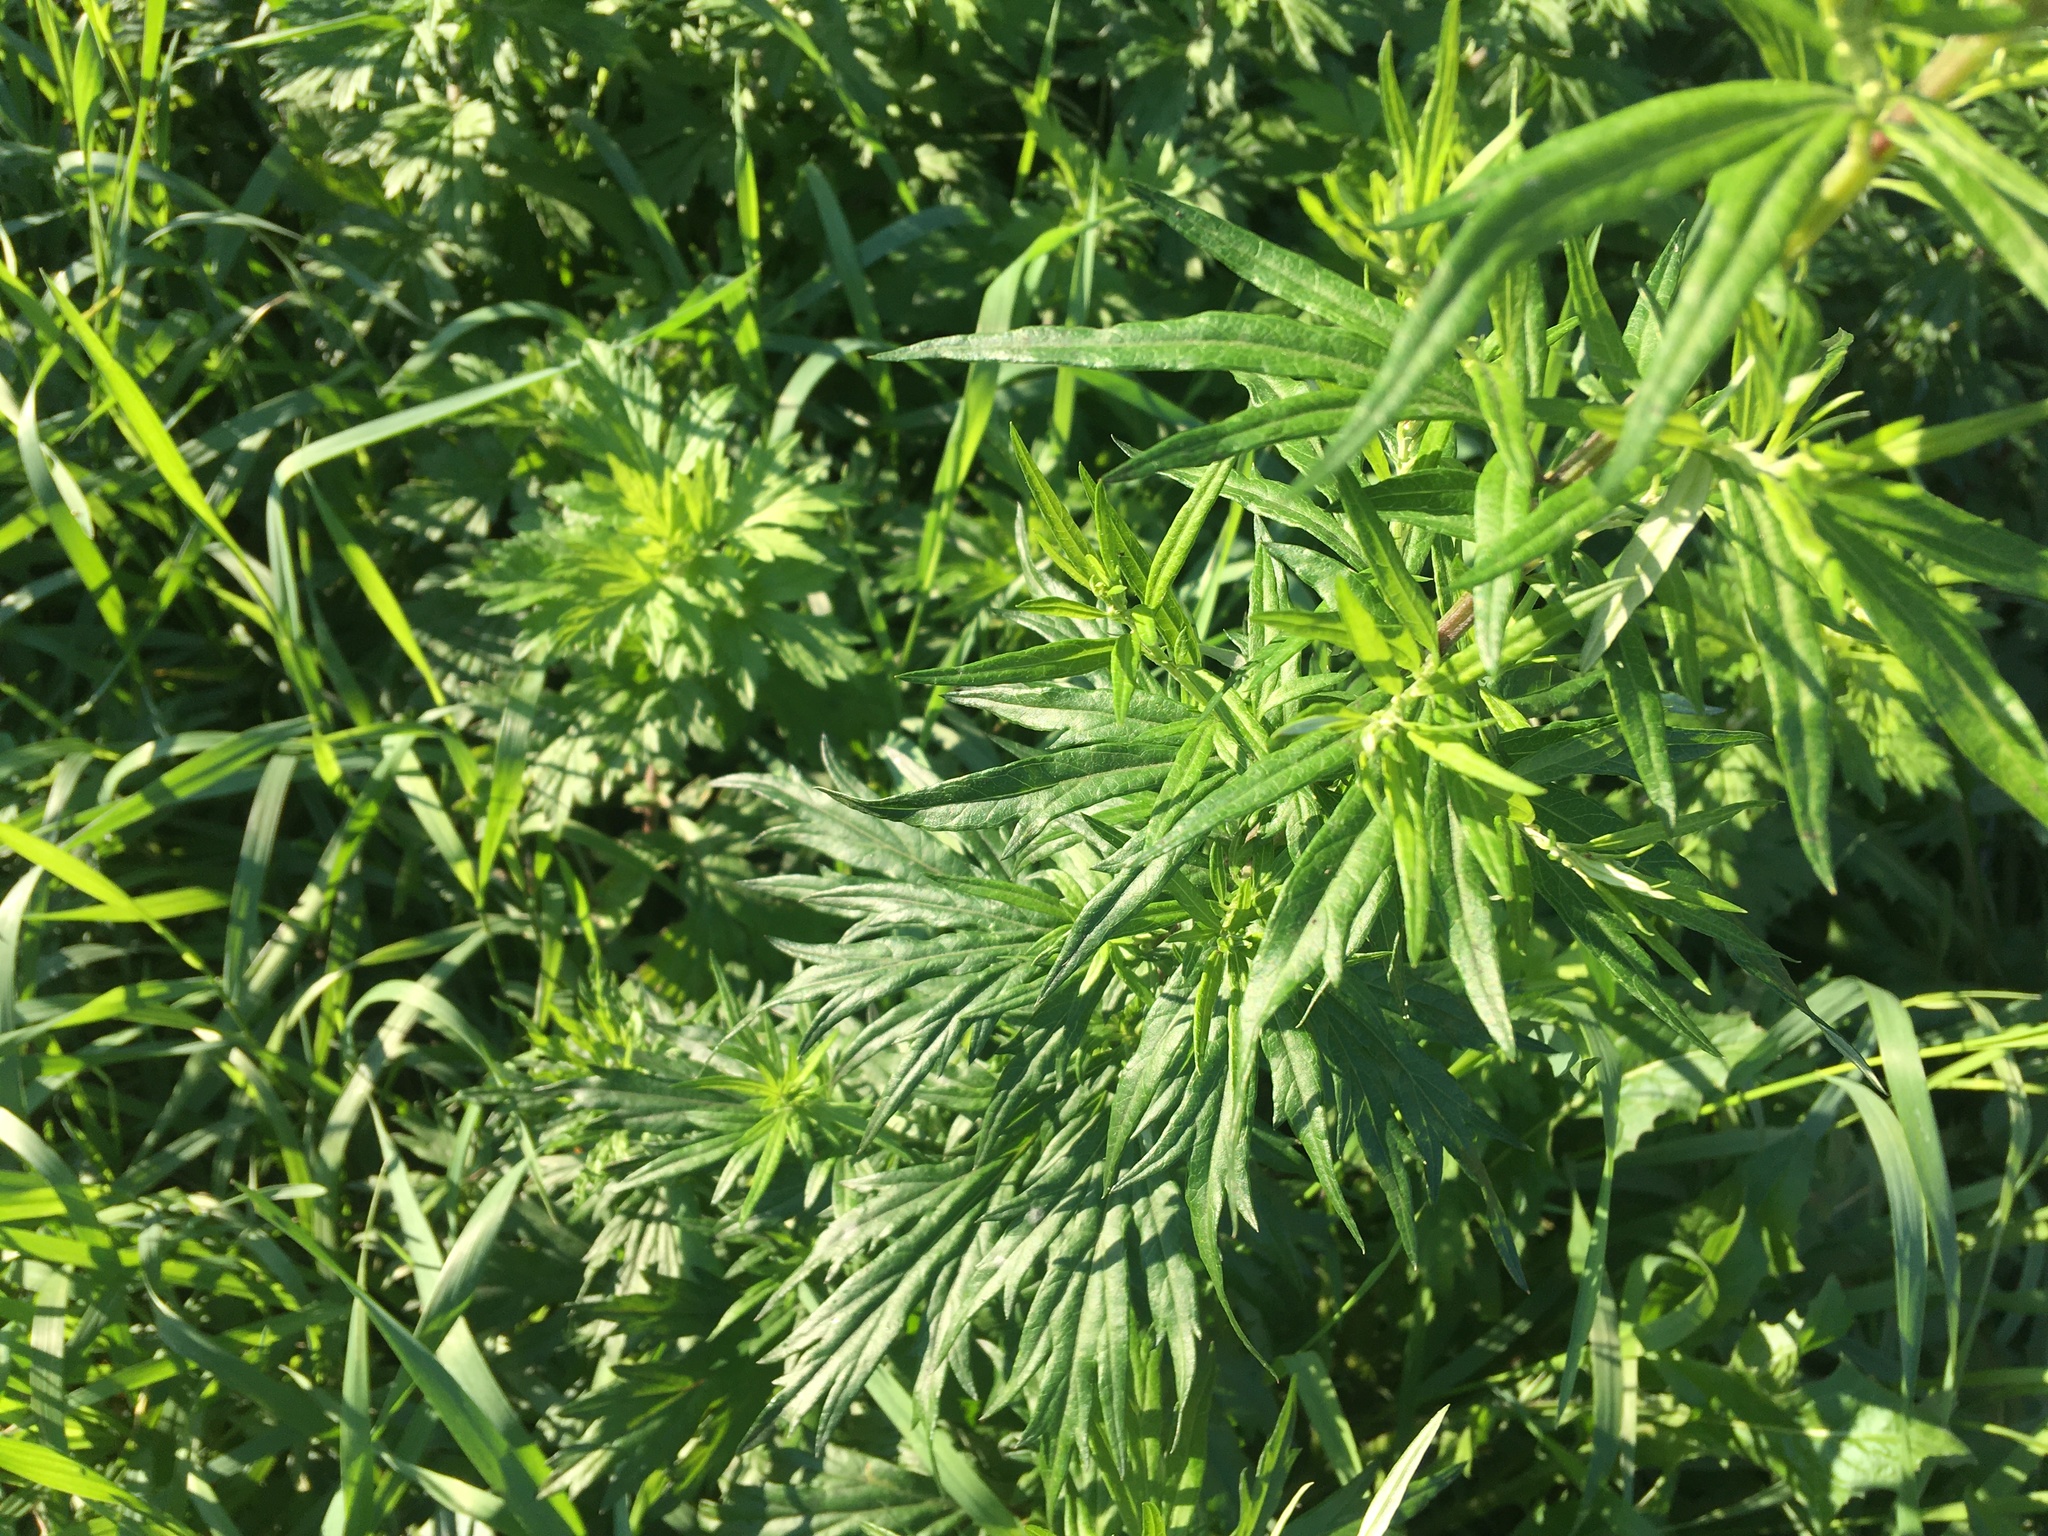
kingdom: Plantae
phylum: Tracheophyta
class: Magnoliopsida
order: Asterales
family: Asteraceae
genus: Artemisia
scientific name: Artemisia vulgaris
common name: Mugwort
